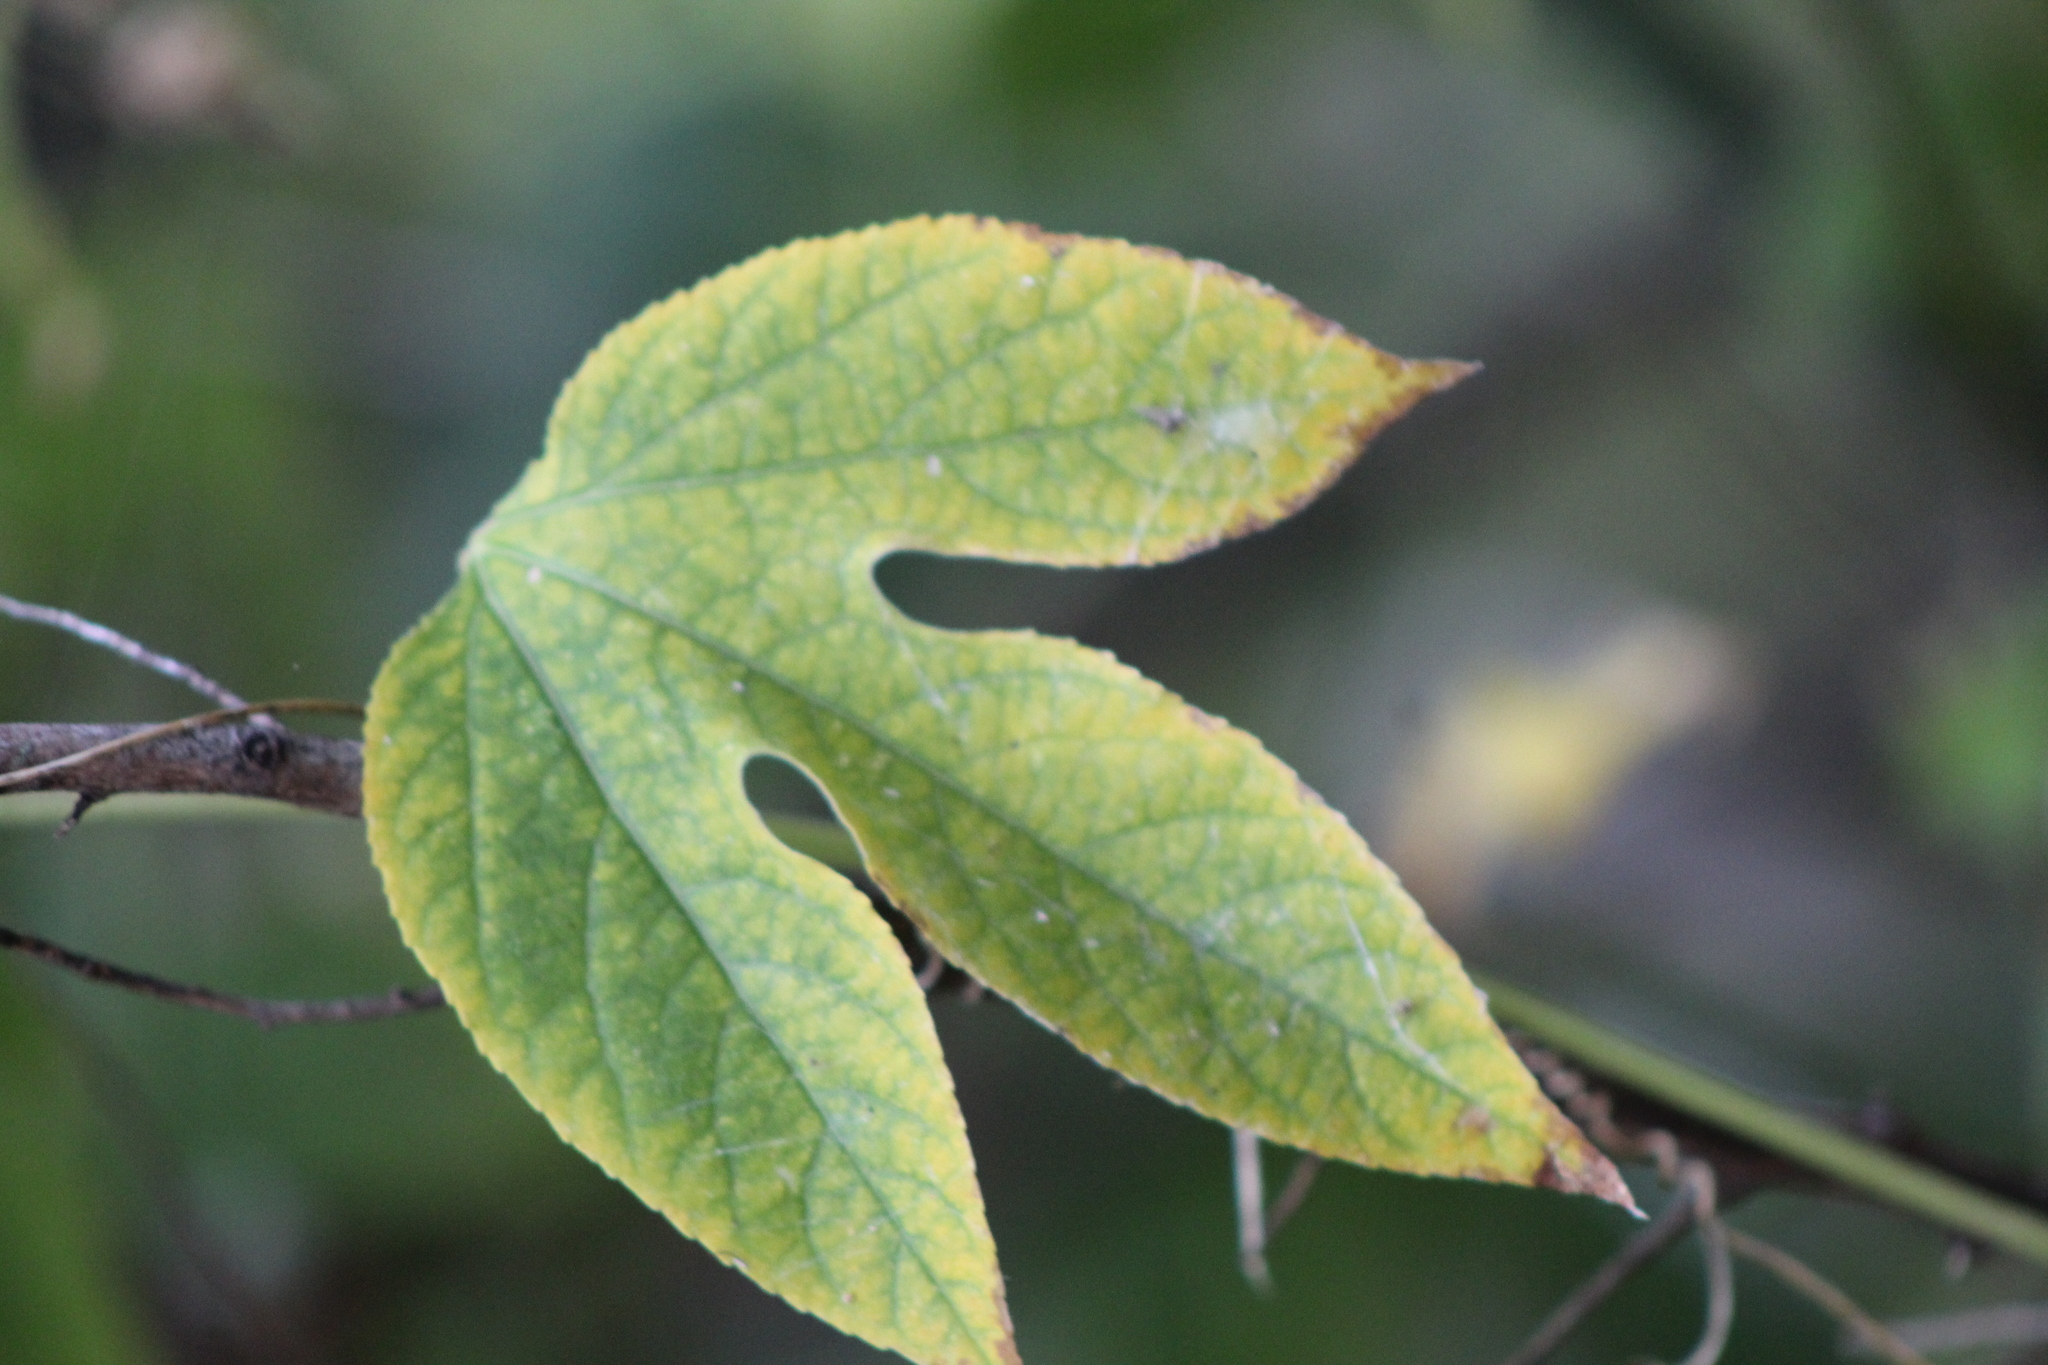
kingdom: Plantae
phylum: Tracheophyta
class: Magnoliopsida
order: Malpighiales
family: Passifloraceae
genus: Passiflora
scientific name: Passiflora incarnata
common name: Apricot-vine
